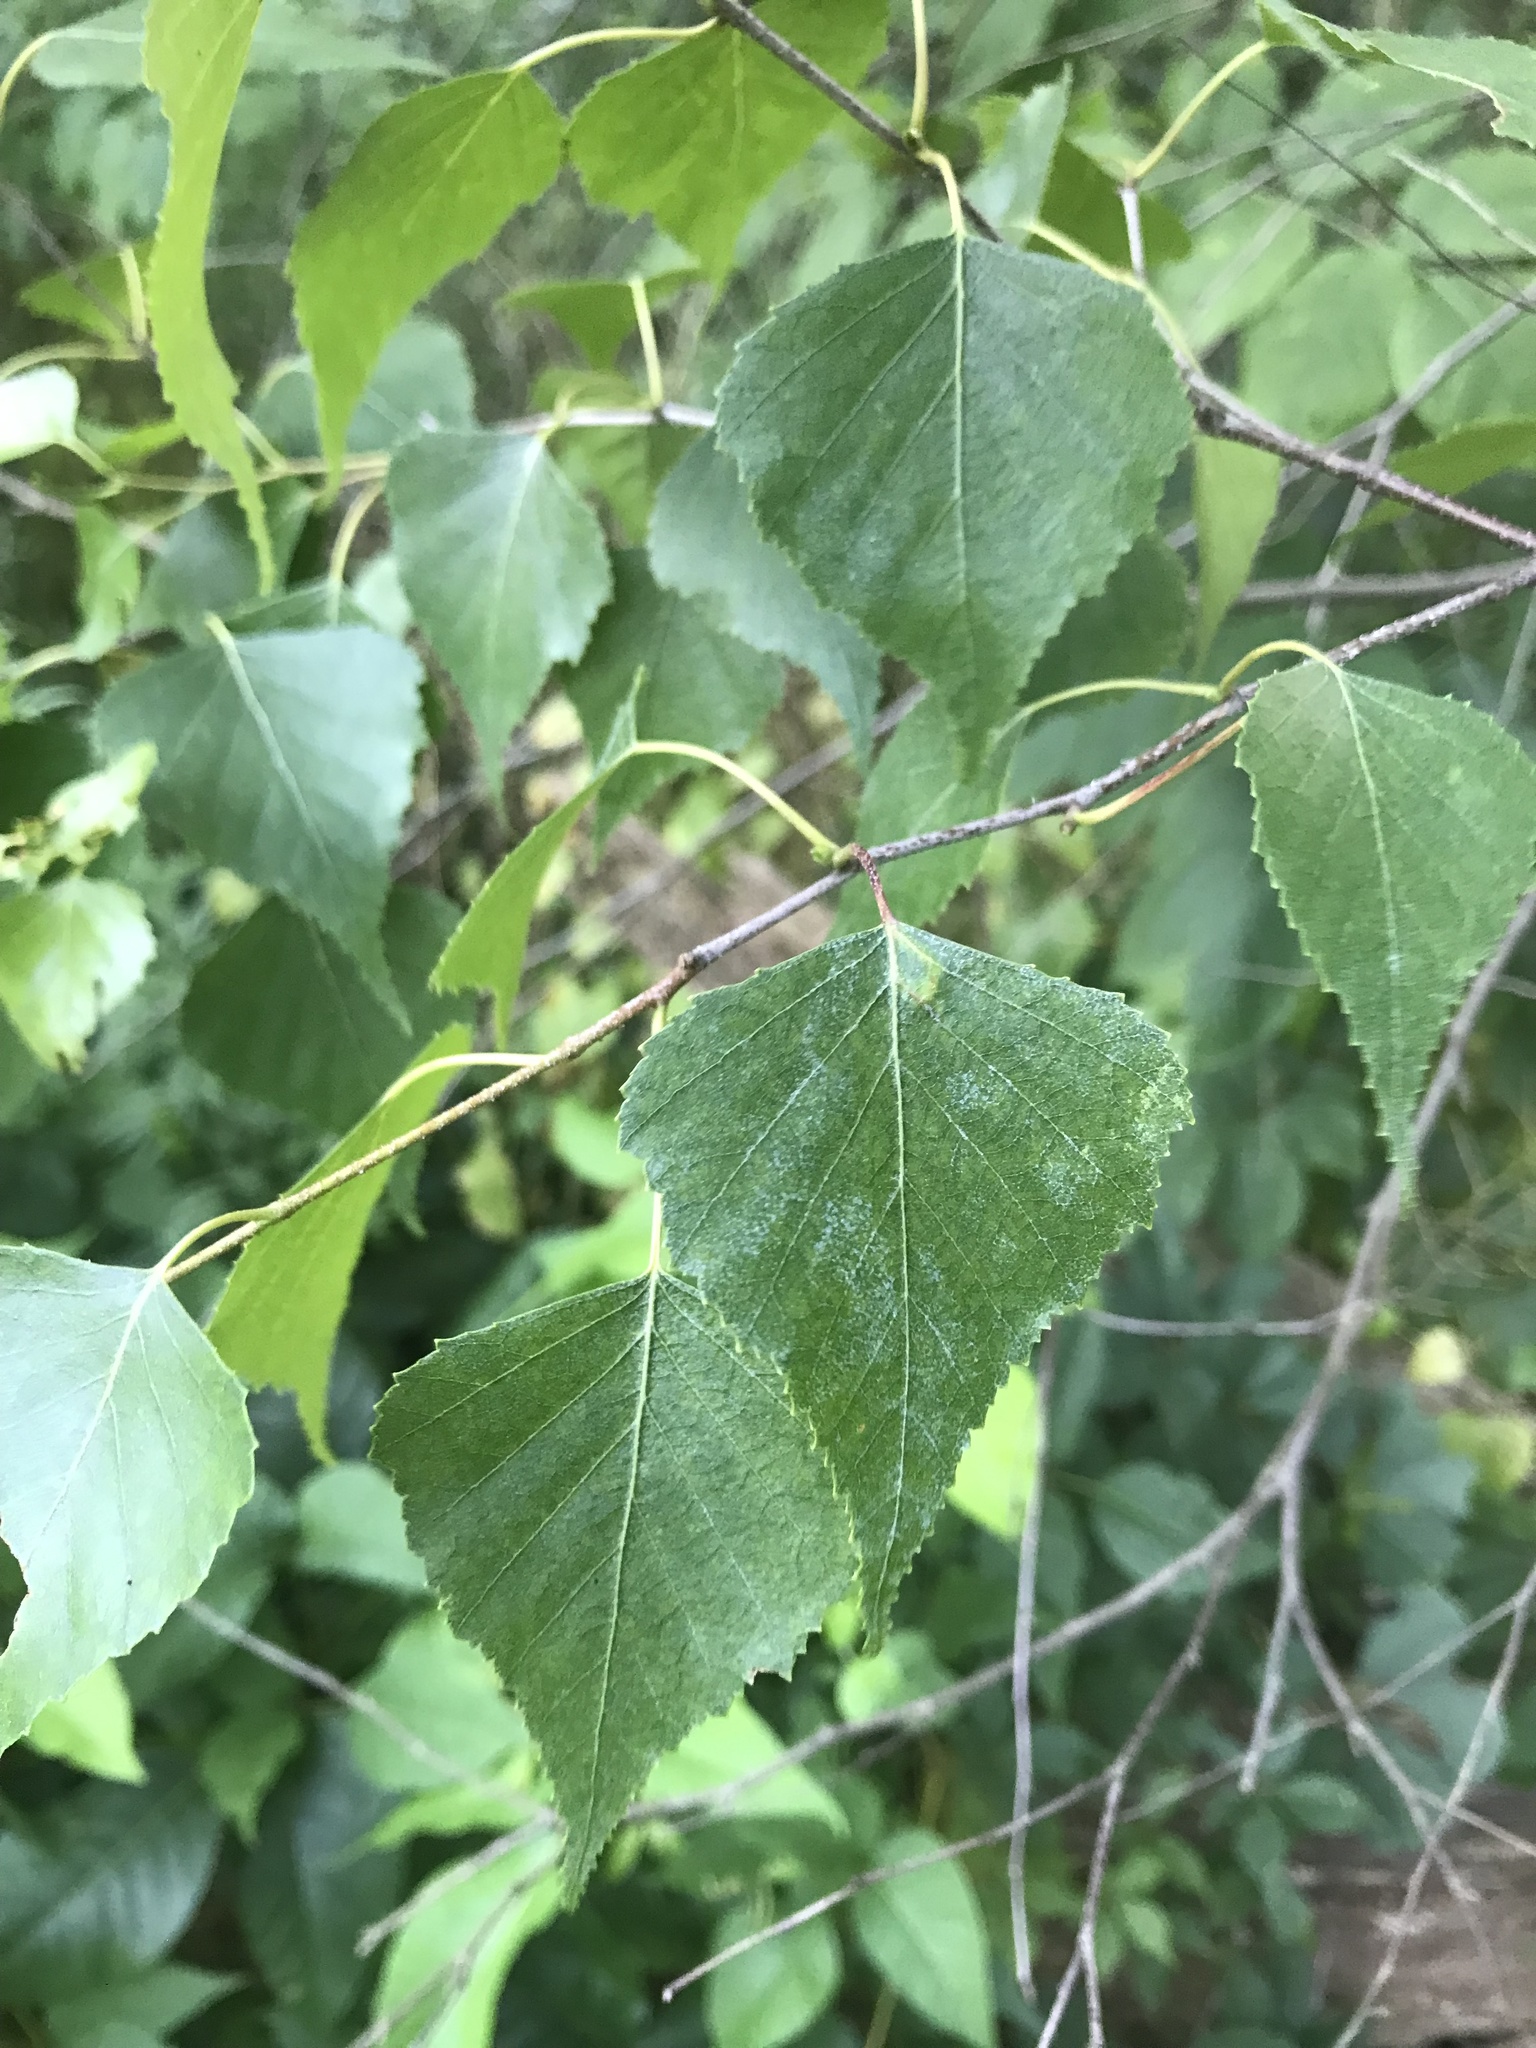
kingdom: Plantae
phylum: Tracheophyta
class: Magnoliopsida
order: Fagales
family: Betulaceae
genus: Betula
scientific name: Betula populifolia
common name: Fire birch
